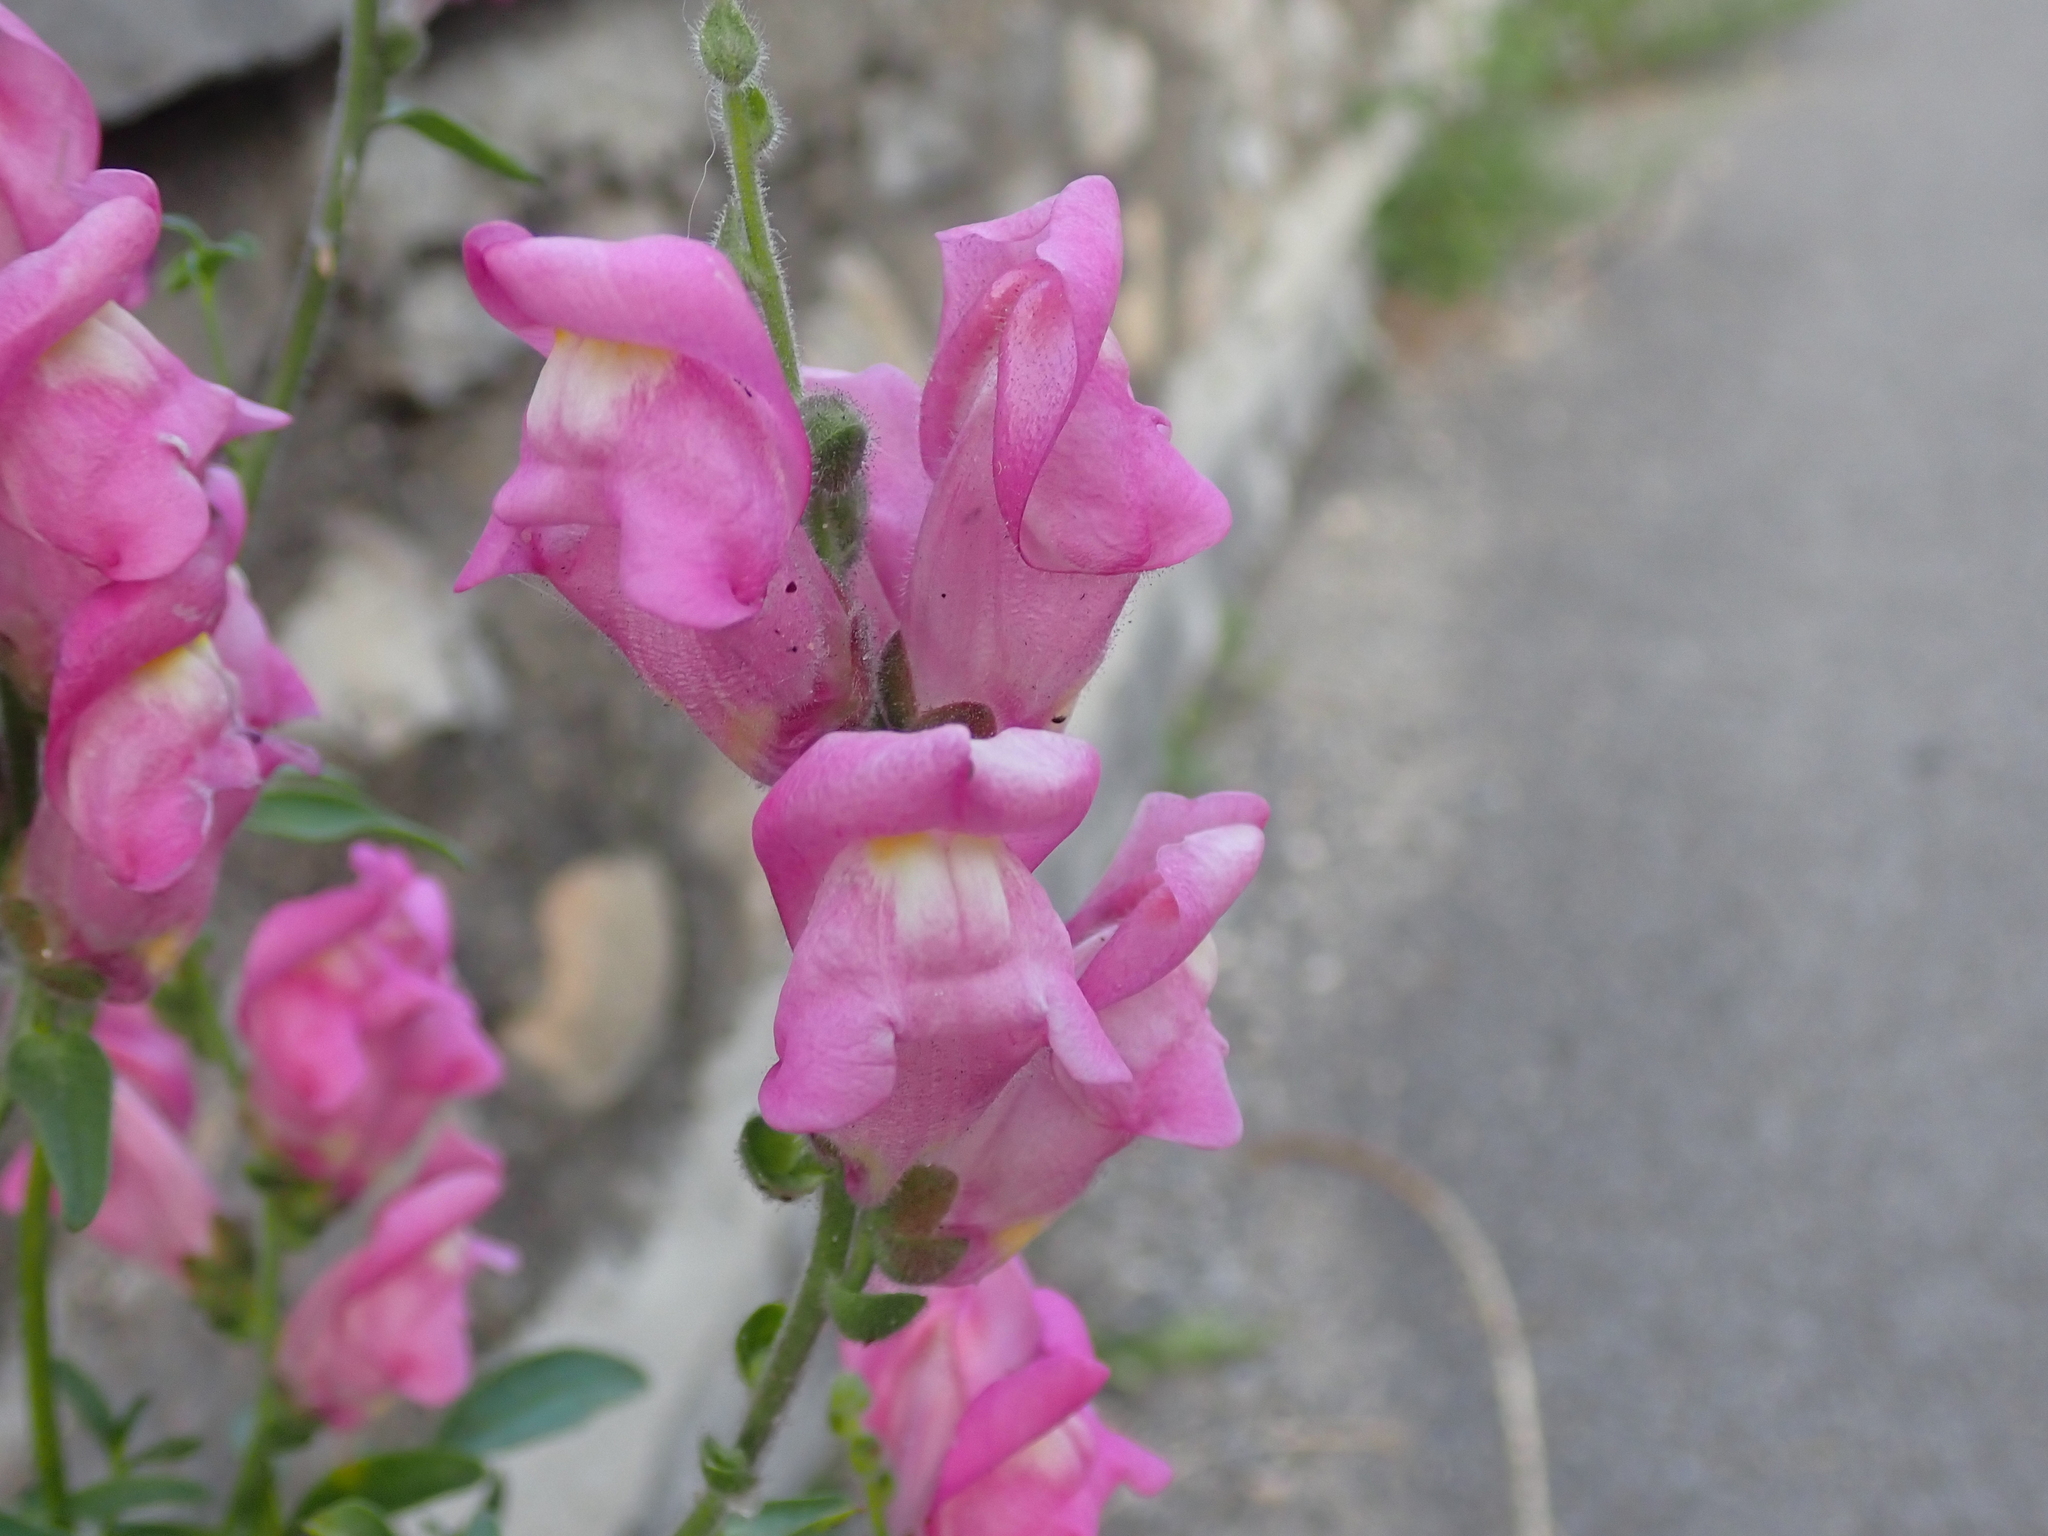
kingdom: Plantae
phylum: Tracheophyta
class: Magnoliopsida
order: Lamiales
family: Plantaginaceae
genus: Antirrhinum
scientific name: Antirrhinum majus
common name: Snapdragon
